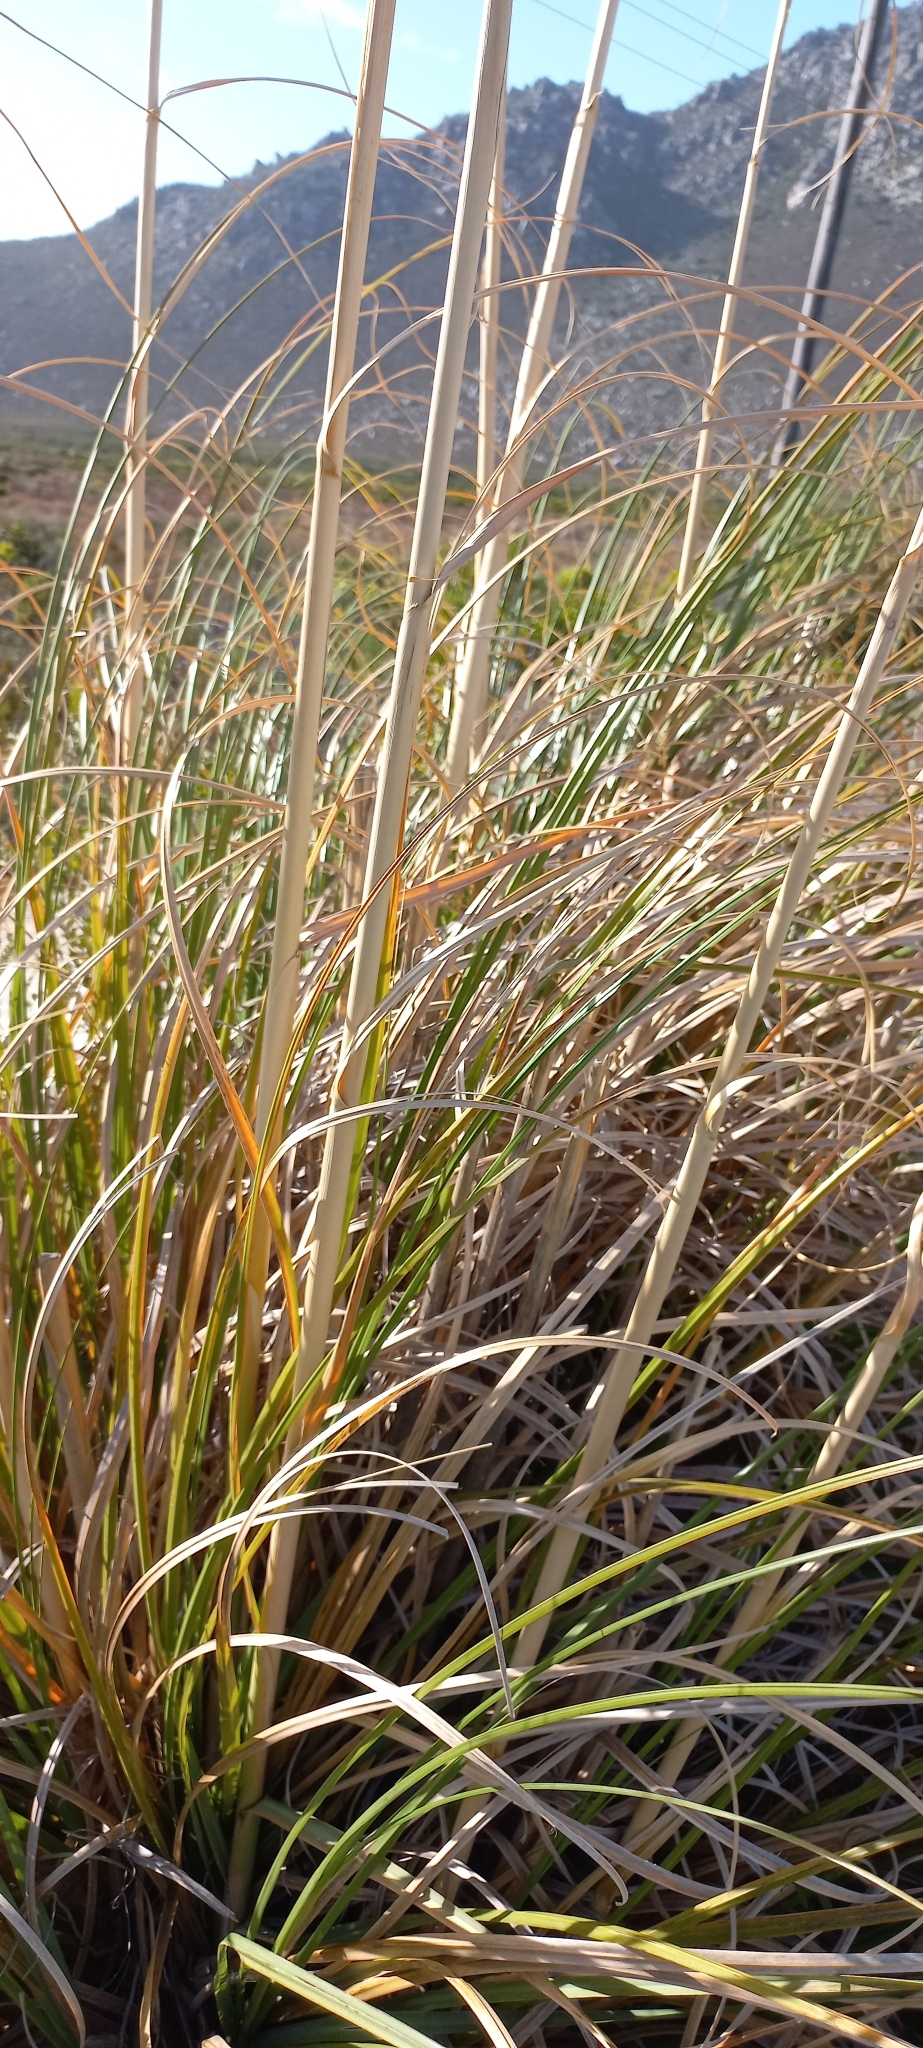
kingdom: Plantae
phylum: Tracheophyta
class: Liliopsida
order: Poales
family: Poaceae
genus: Cortaderia
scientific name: Cortaderia selloana
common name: Uruguayan pampas grass
